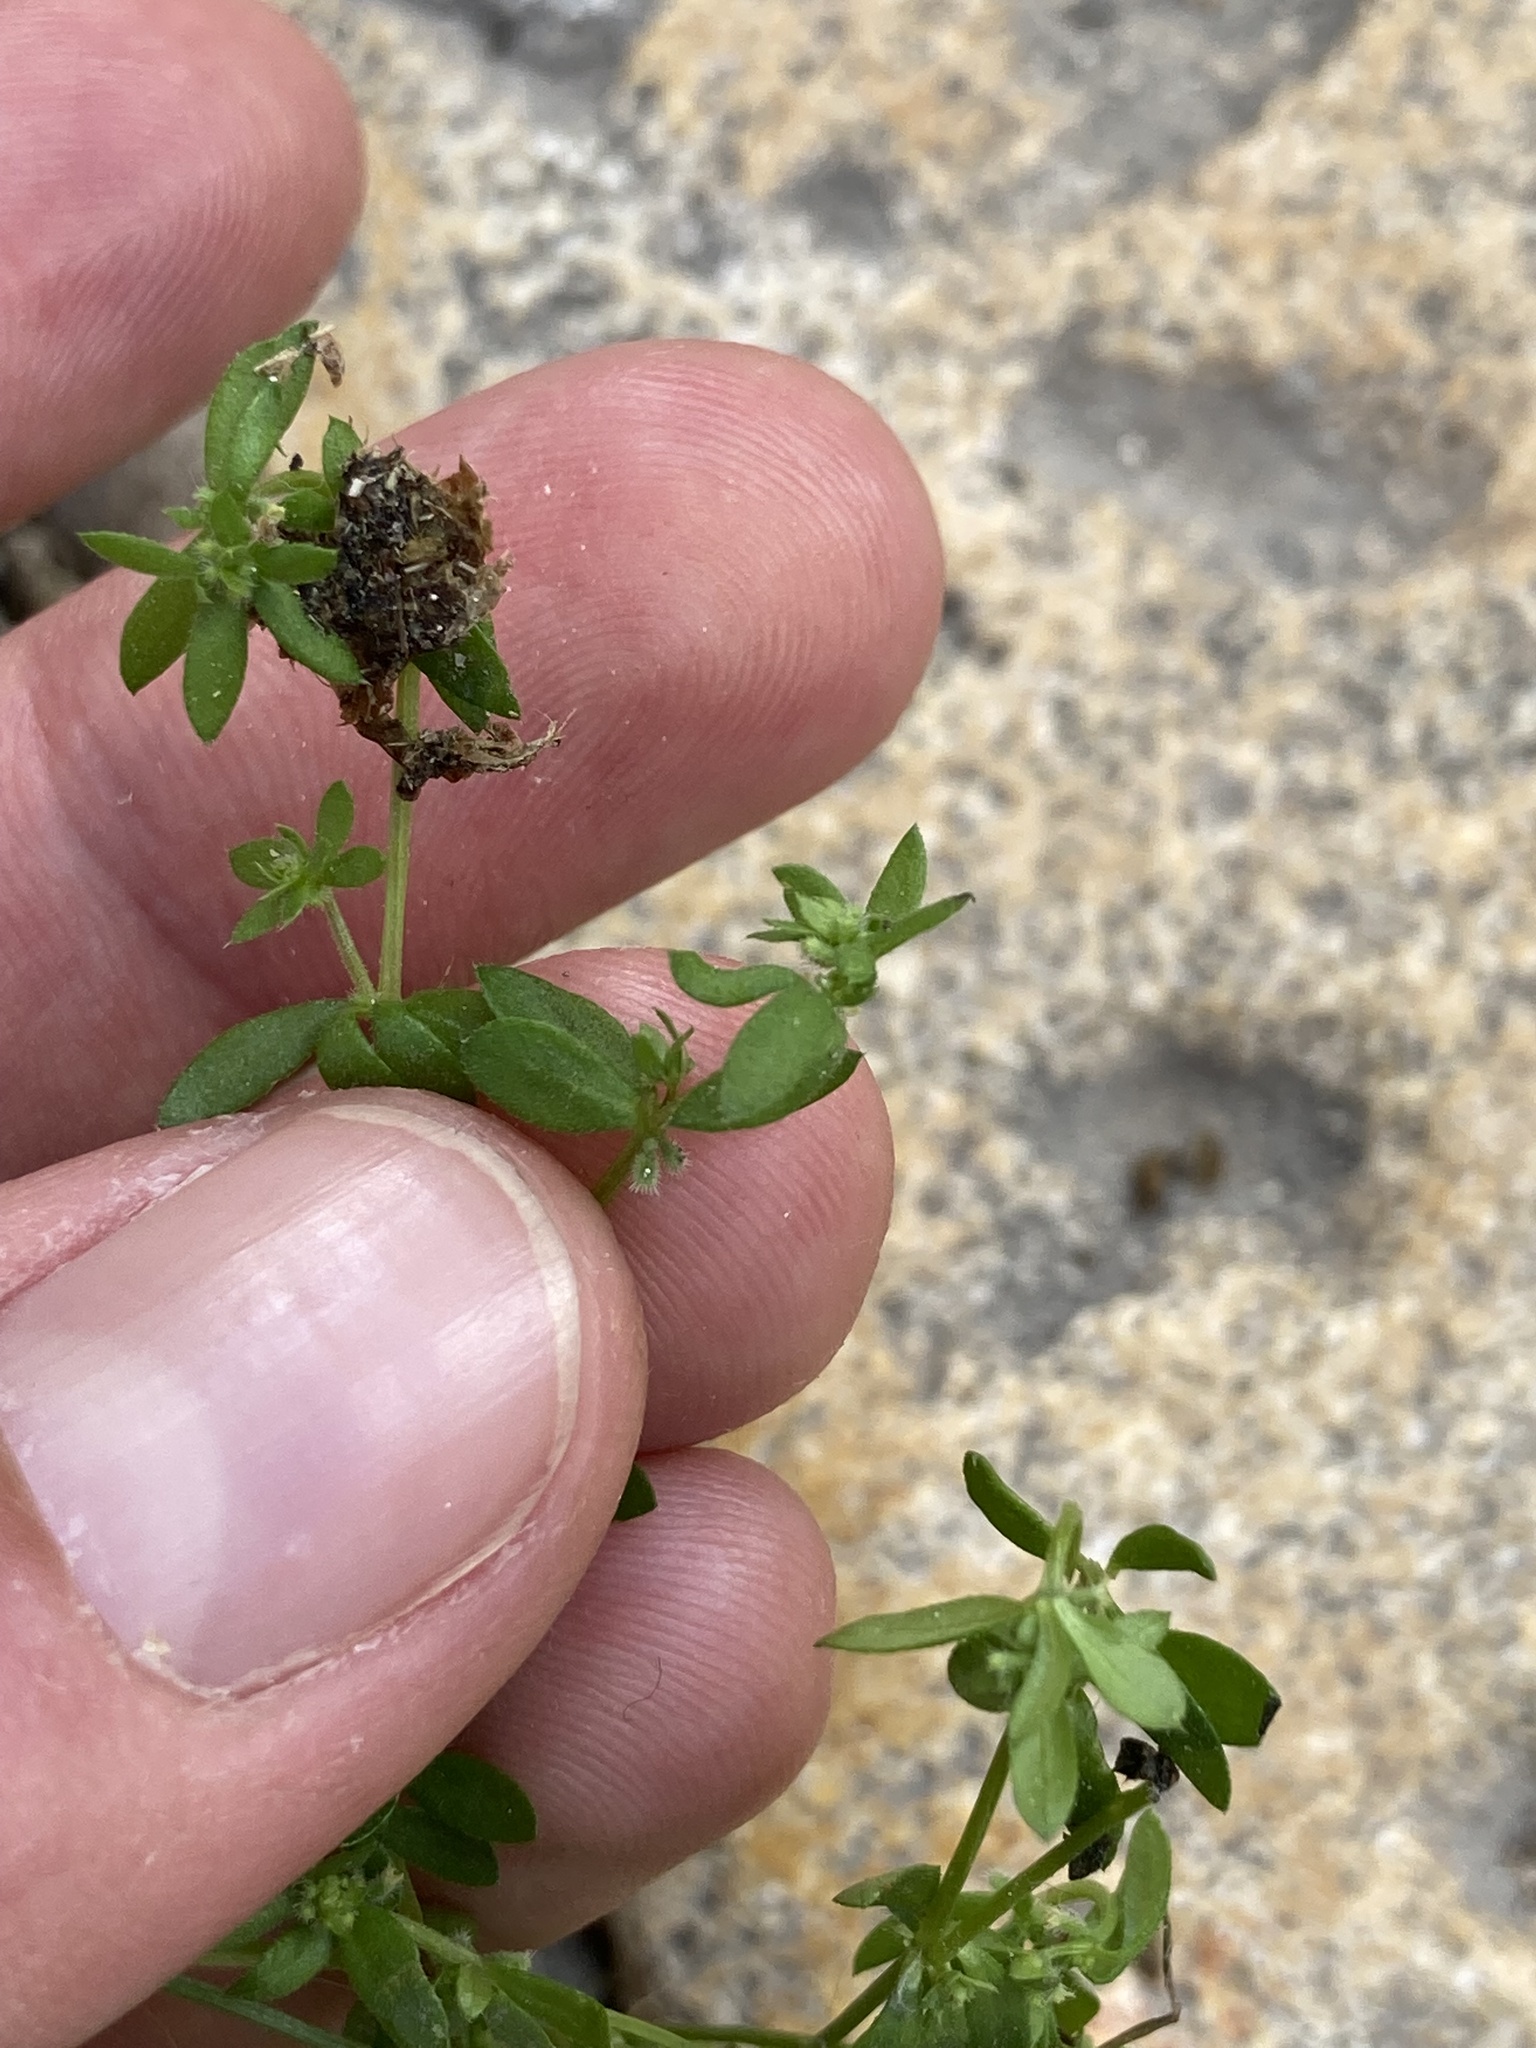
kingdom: Plantae
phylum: Tracheophyta
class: Magnoliopsida
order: Gentianales
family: Rubiaceae
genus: Galium
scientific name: Galium murale
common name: Yellow wall bedstraw
